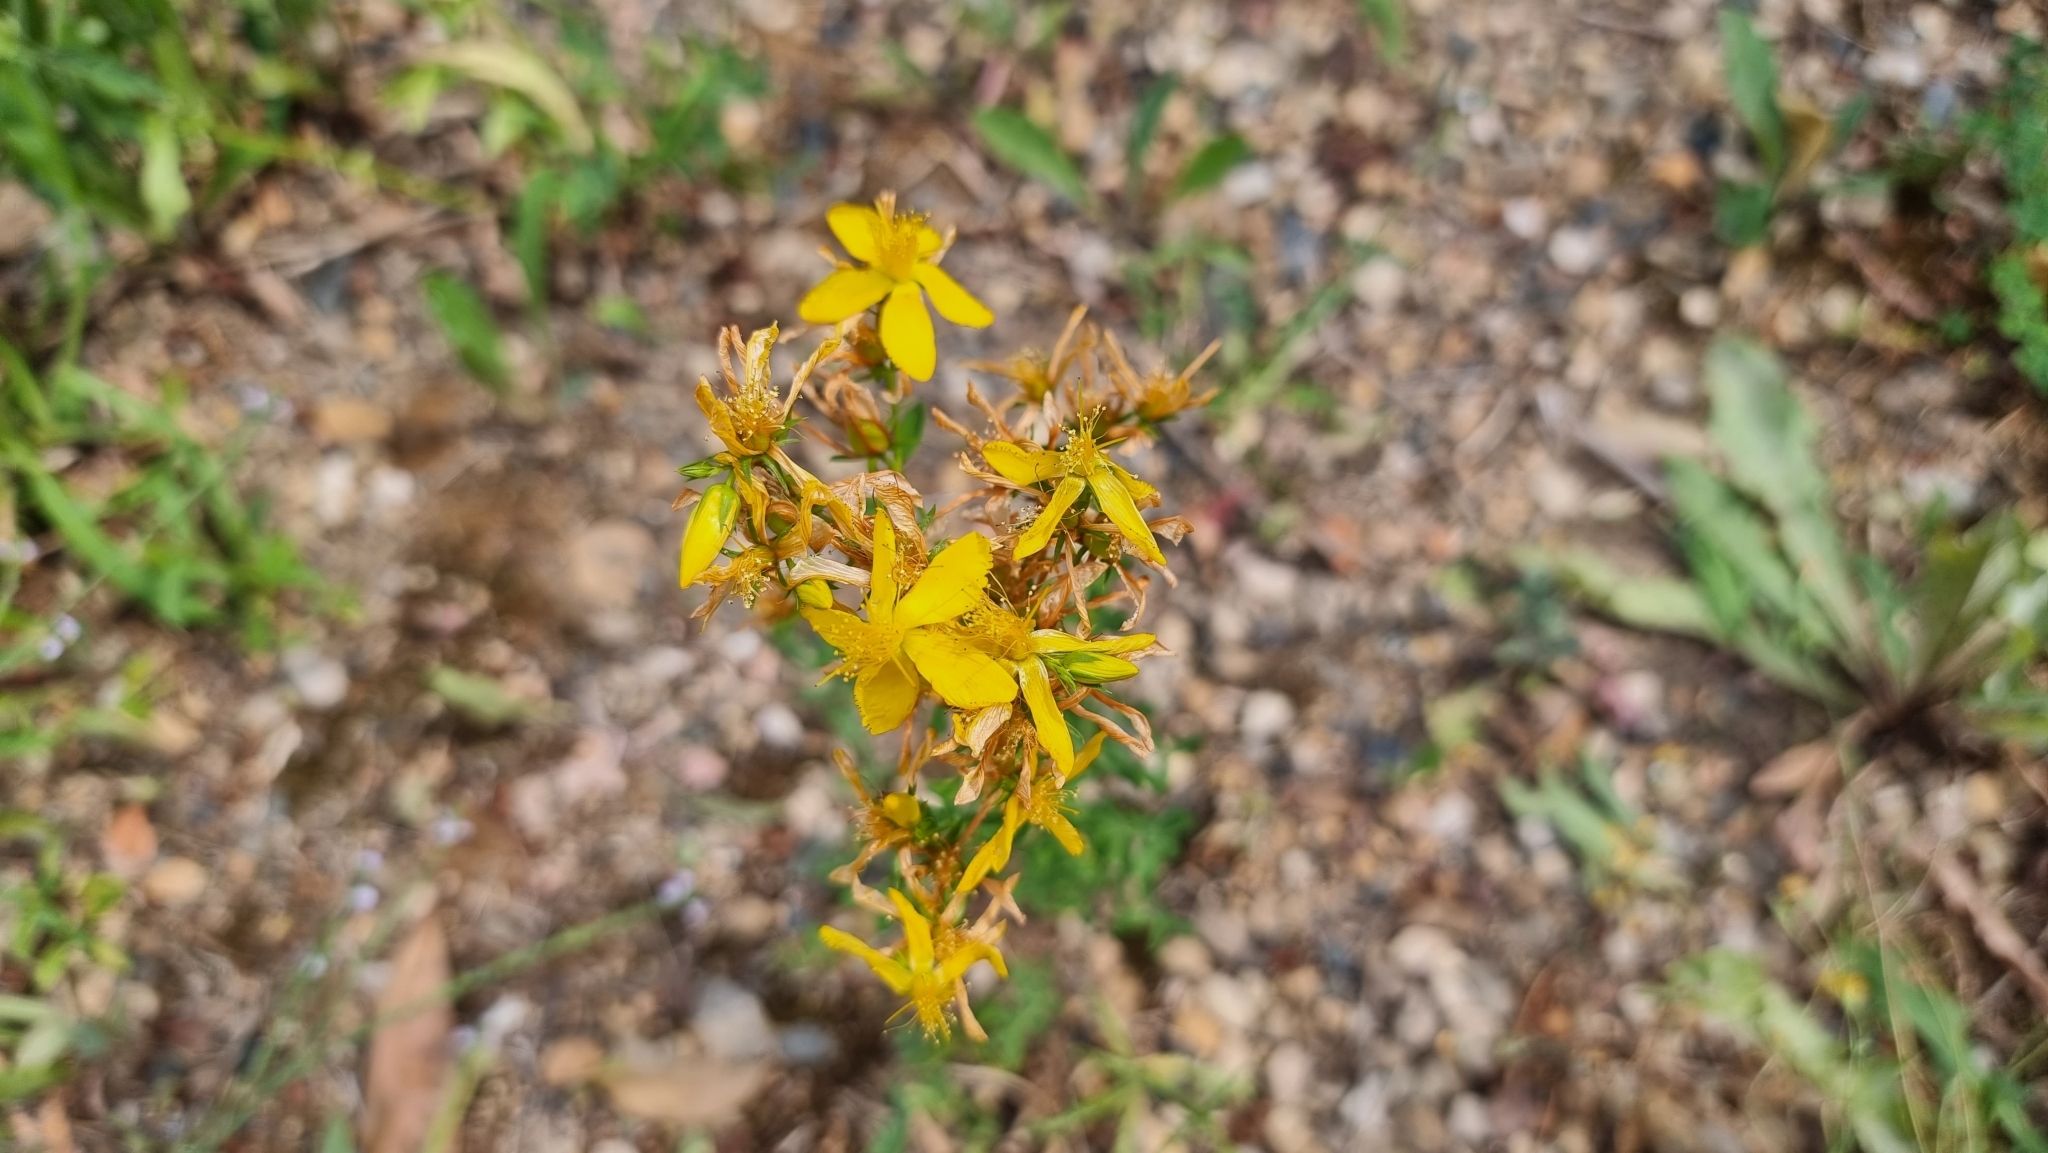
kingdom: Plantae
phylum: Tracheophyta
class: Magnoliopsida
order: Malpighiales
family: Hypericaceae
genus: Hypericum
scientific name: Hypericum perforatum
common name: Common st. johnswort
